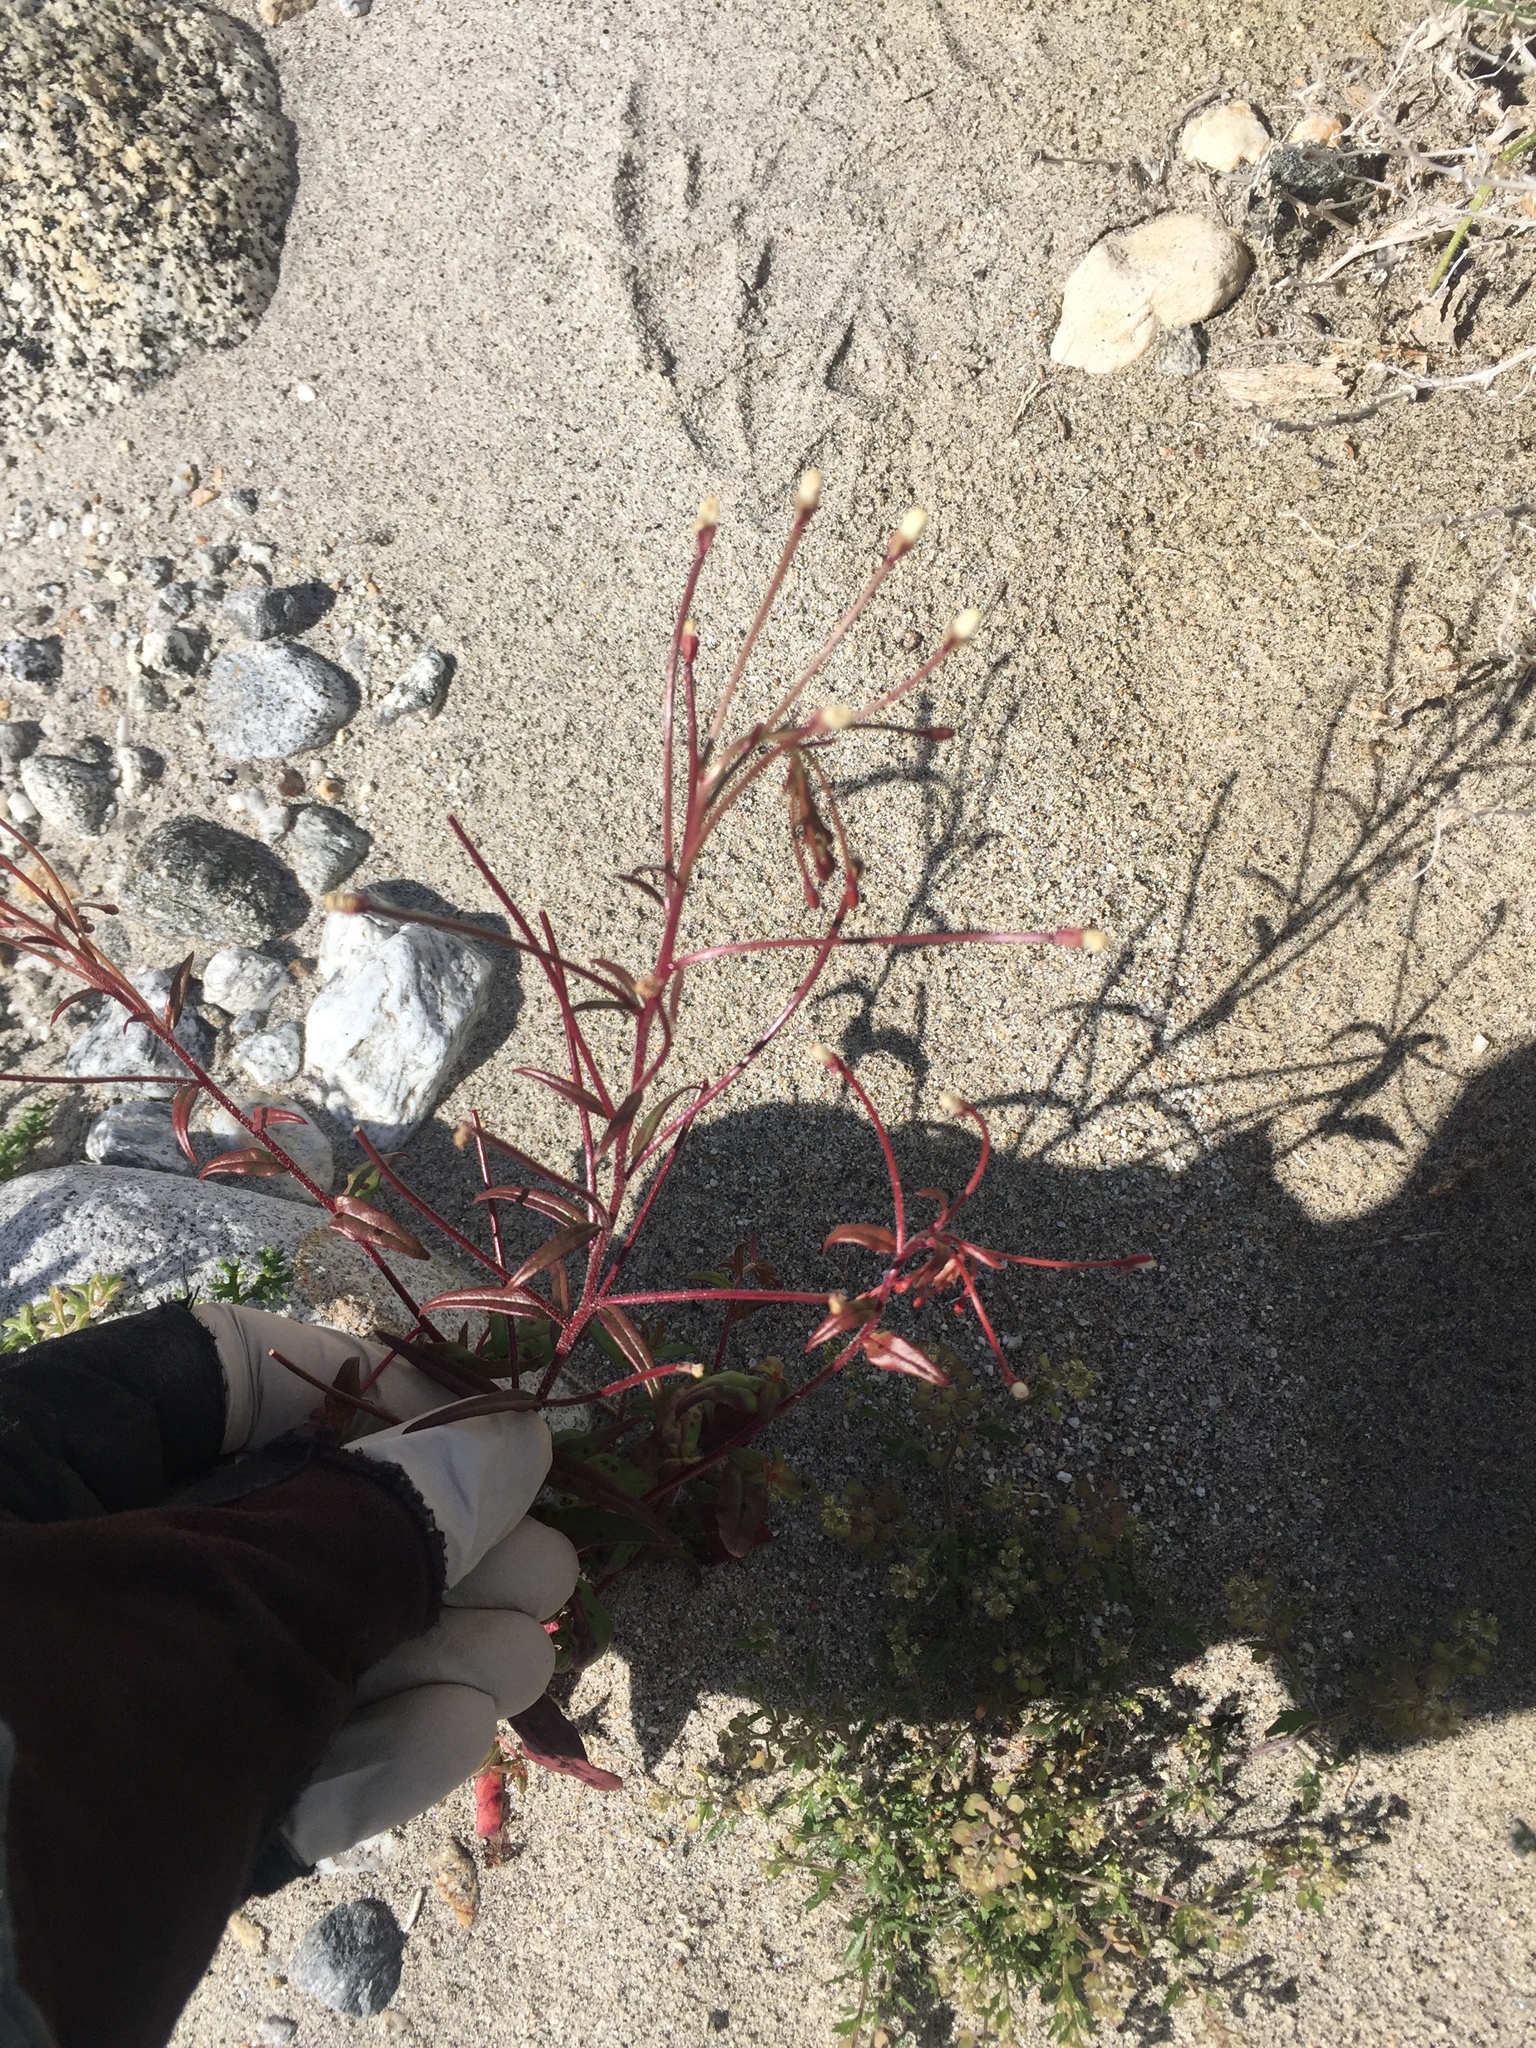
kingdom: Plantae
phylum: Tracheophyta
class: Magnoliopsida
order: Myrtales
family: Onagraceae
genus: Eremothera
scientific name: Eremothera chamaenerioides
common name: Longcapsule suncup
